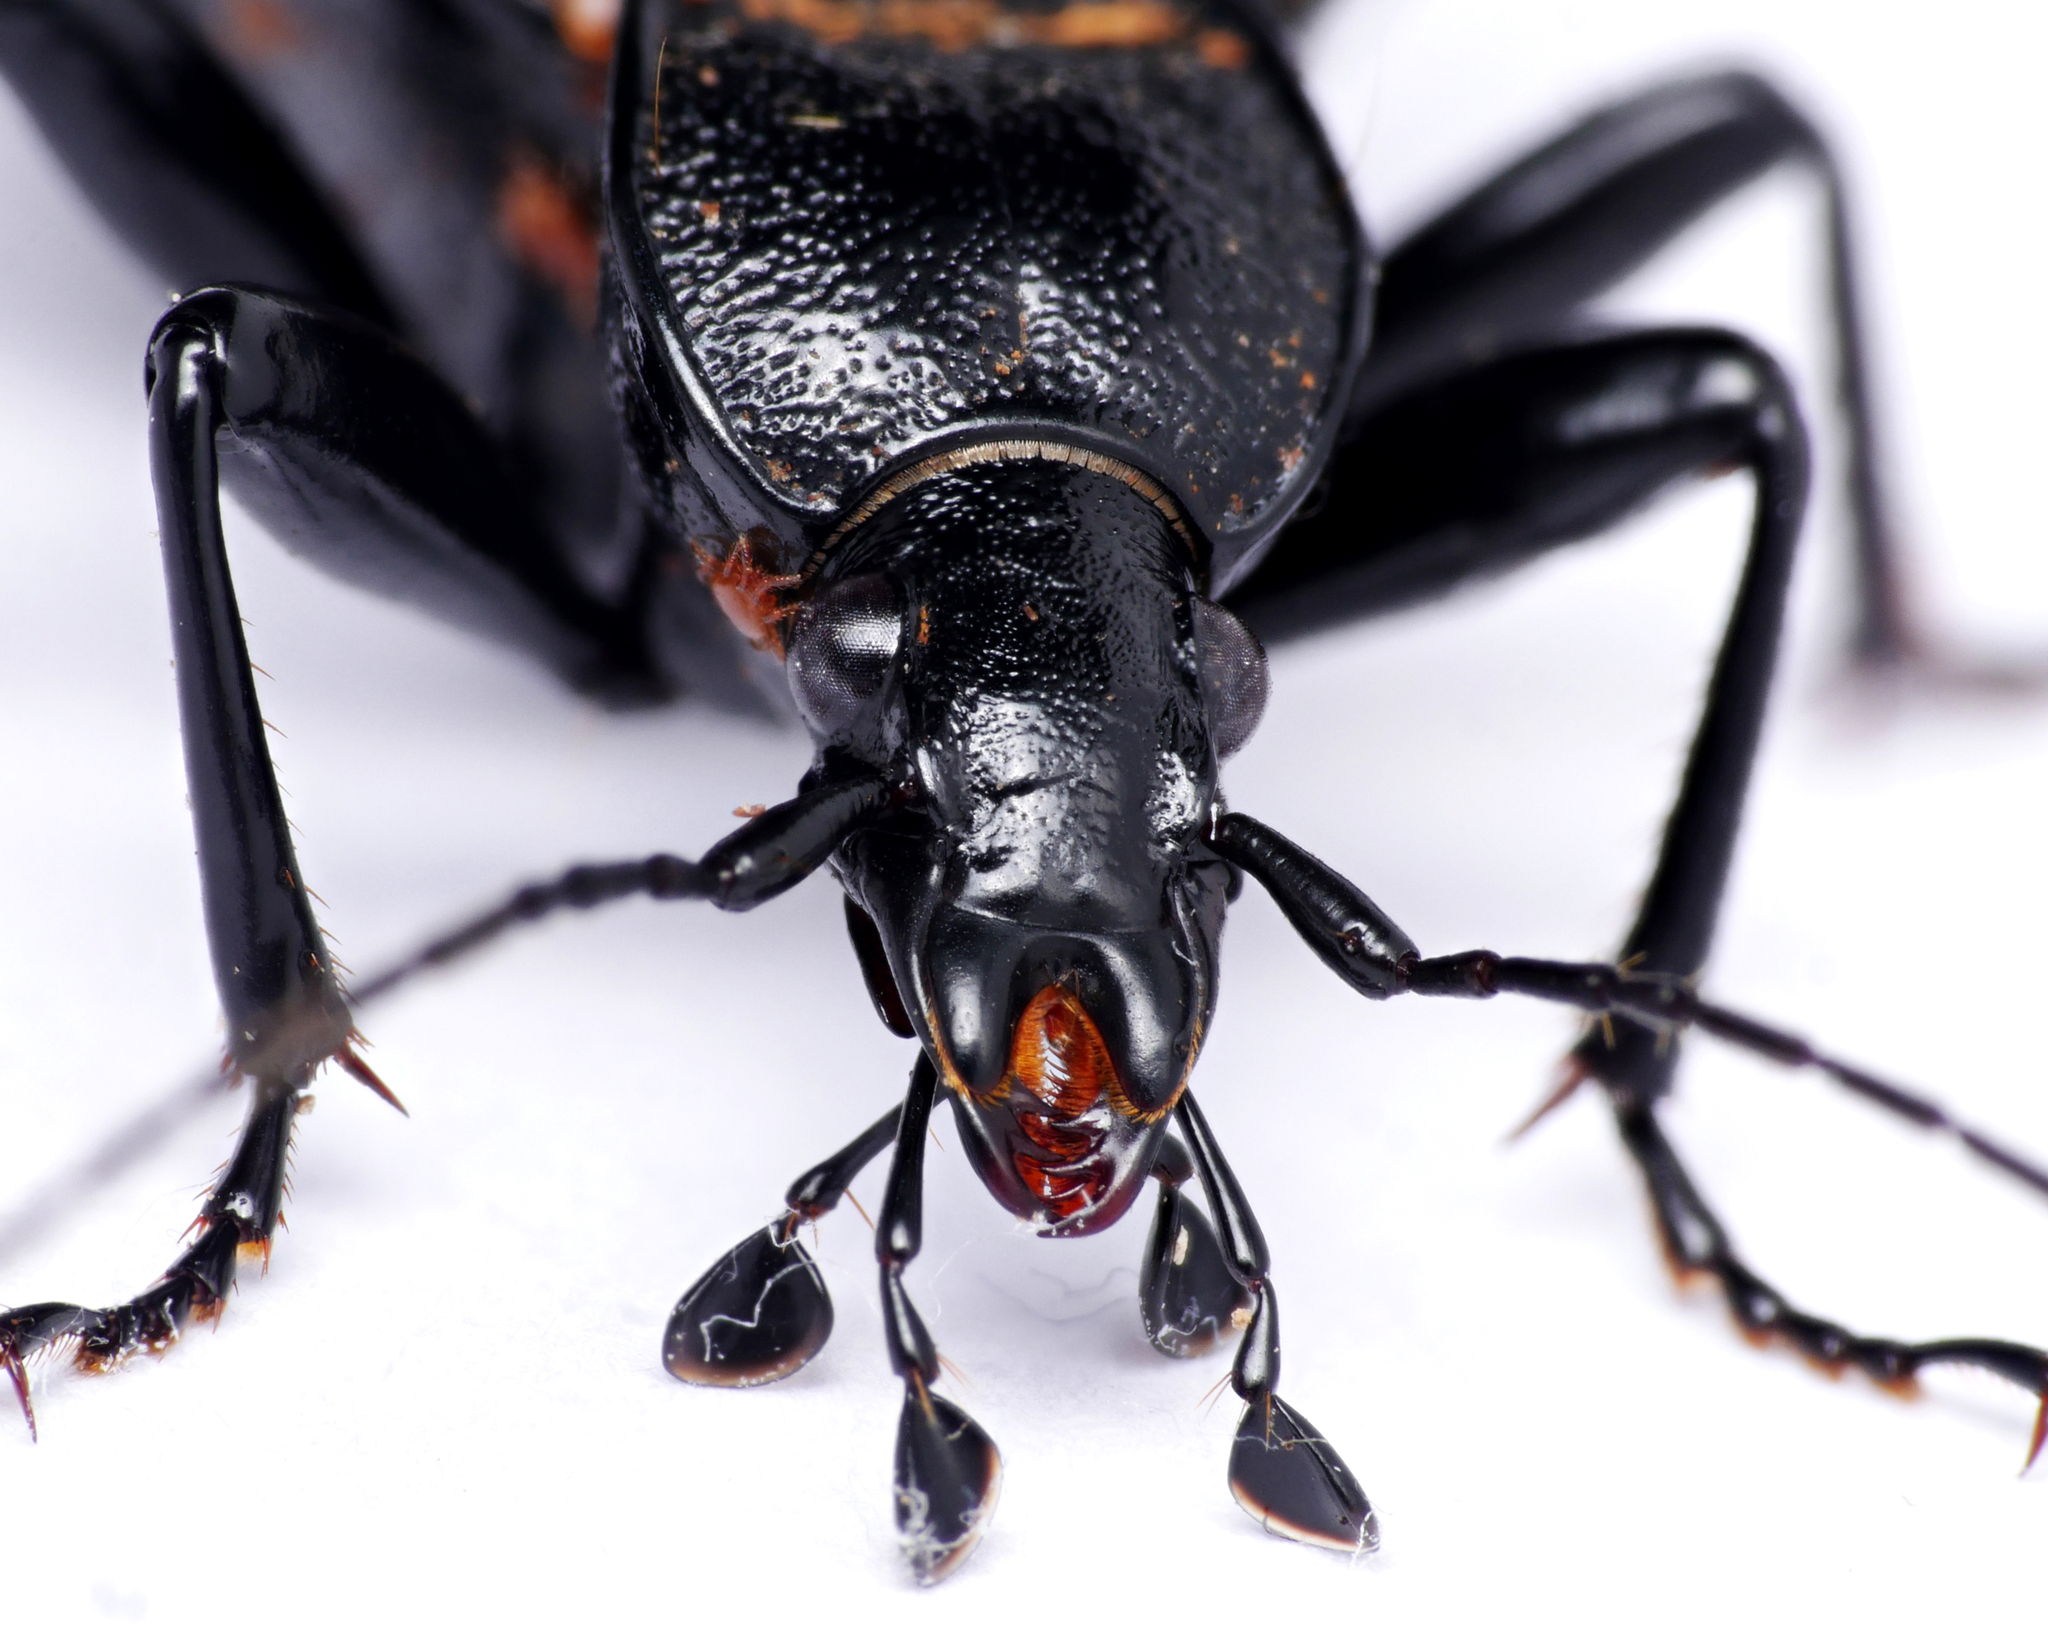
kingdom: Animalia
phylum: Arthropoda
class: Insecta
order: Coleoptera
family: Carabidae
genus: Cychrus
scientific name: Cychrus caraboides
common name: Snail hunter
